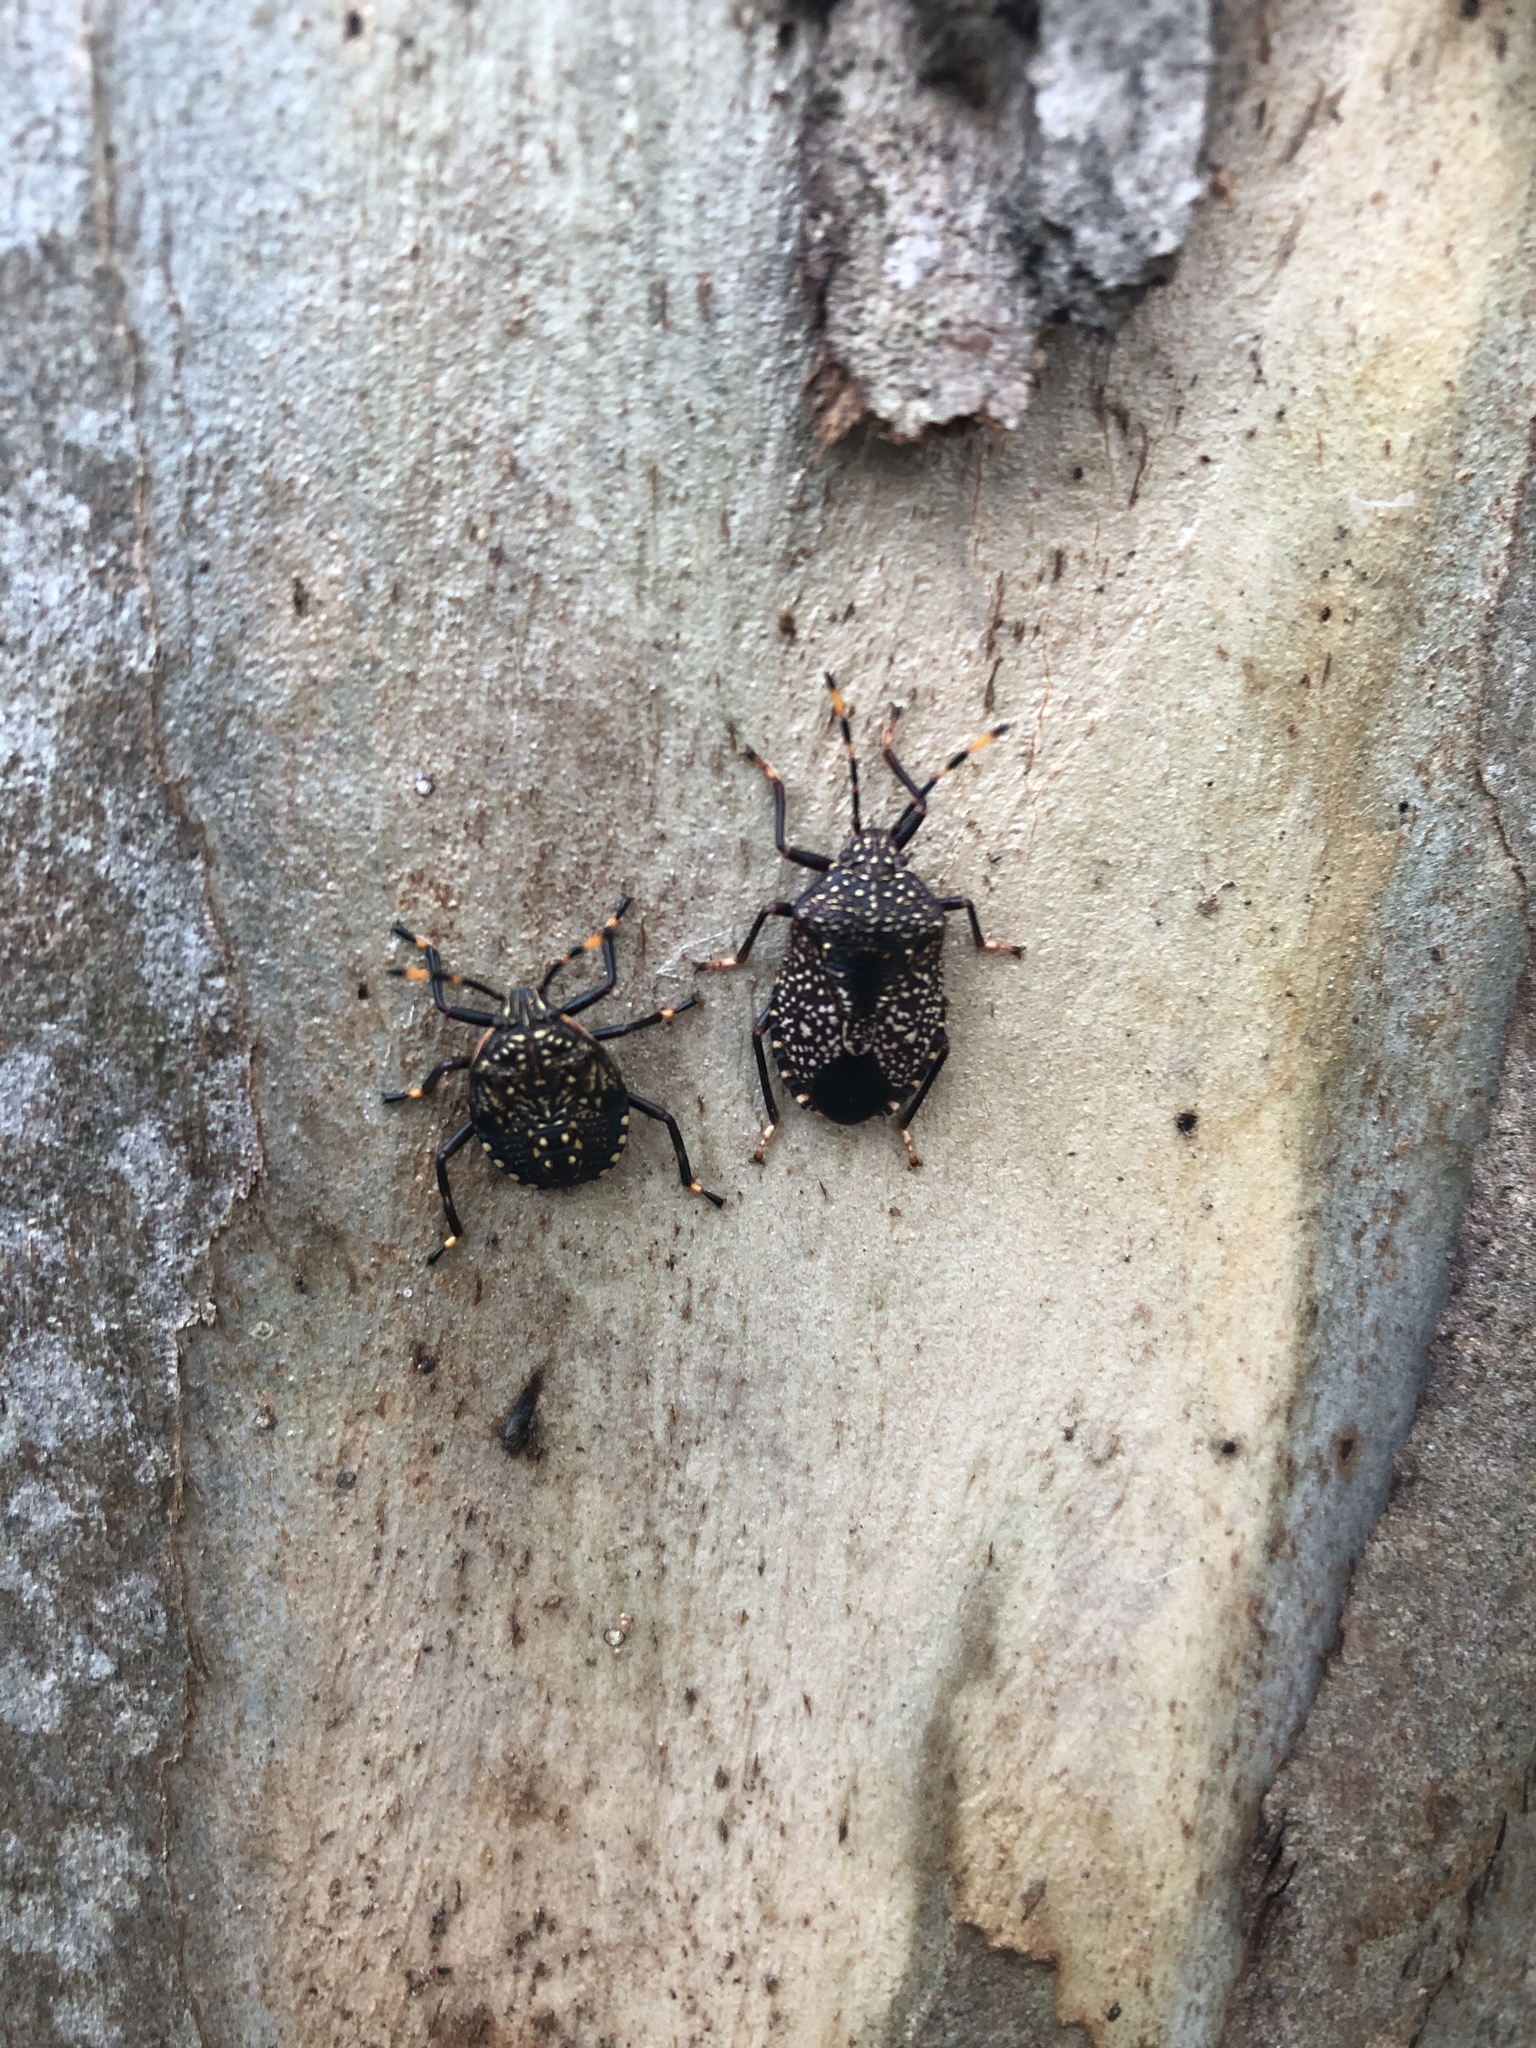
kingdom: Animalia
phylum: Arthropoda
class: Insecta
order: Hemiptera
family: Pentatomidae
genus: Notius
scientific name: Notius
